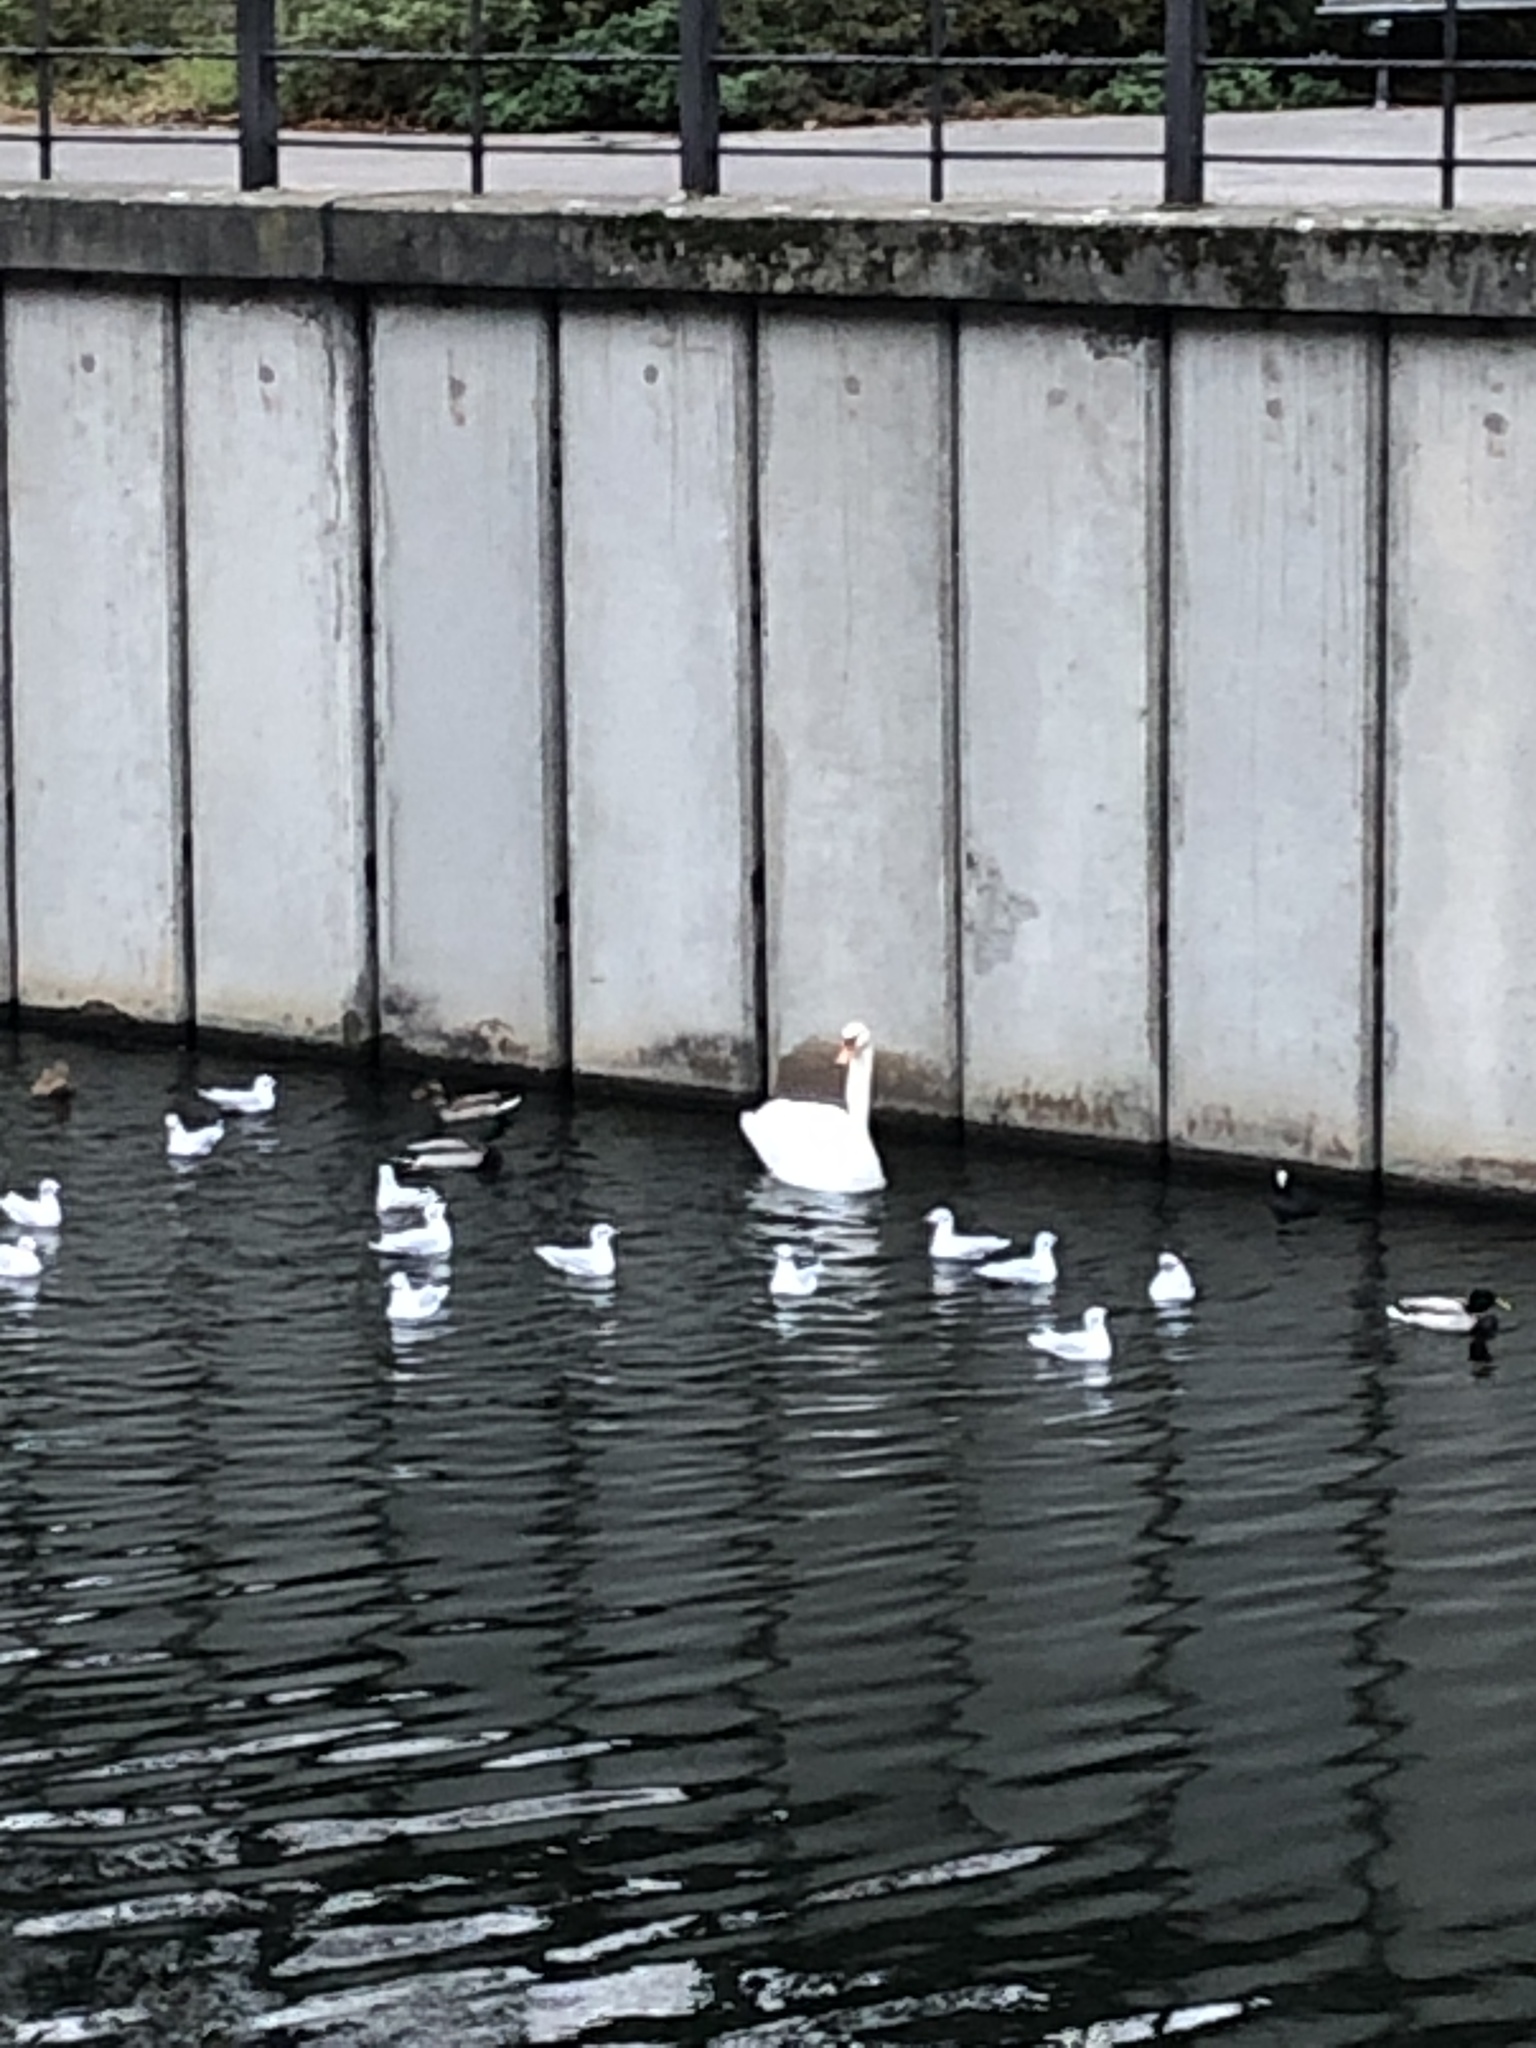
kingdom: Animalia
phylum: Chordata
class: Aves
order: Anseriformes
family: Anatidae
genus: Cygnus
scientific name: Cygnus olor
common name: Mute swan
